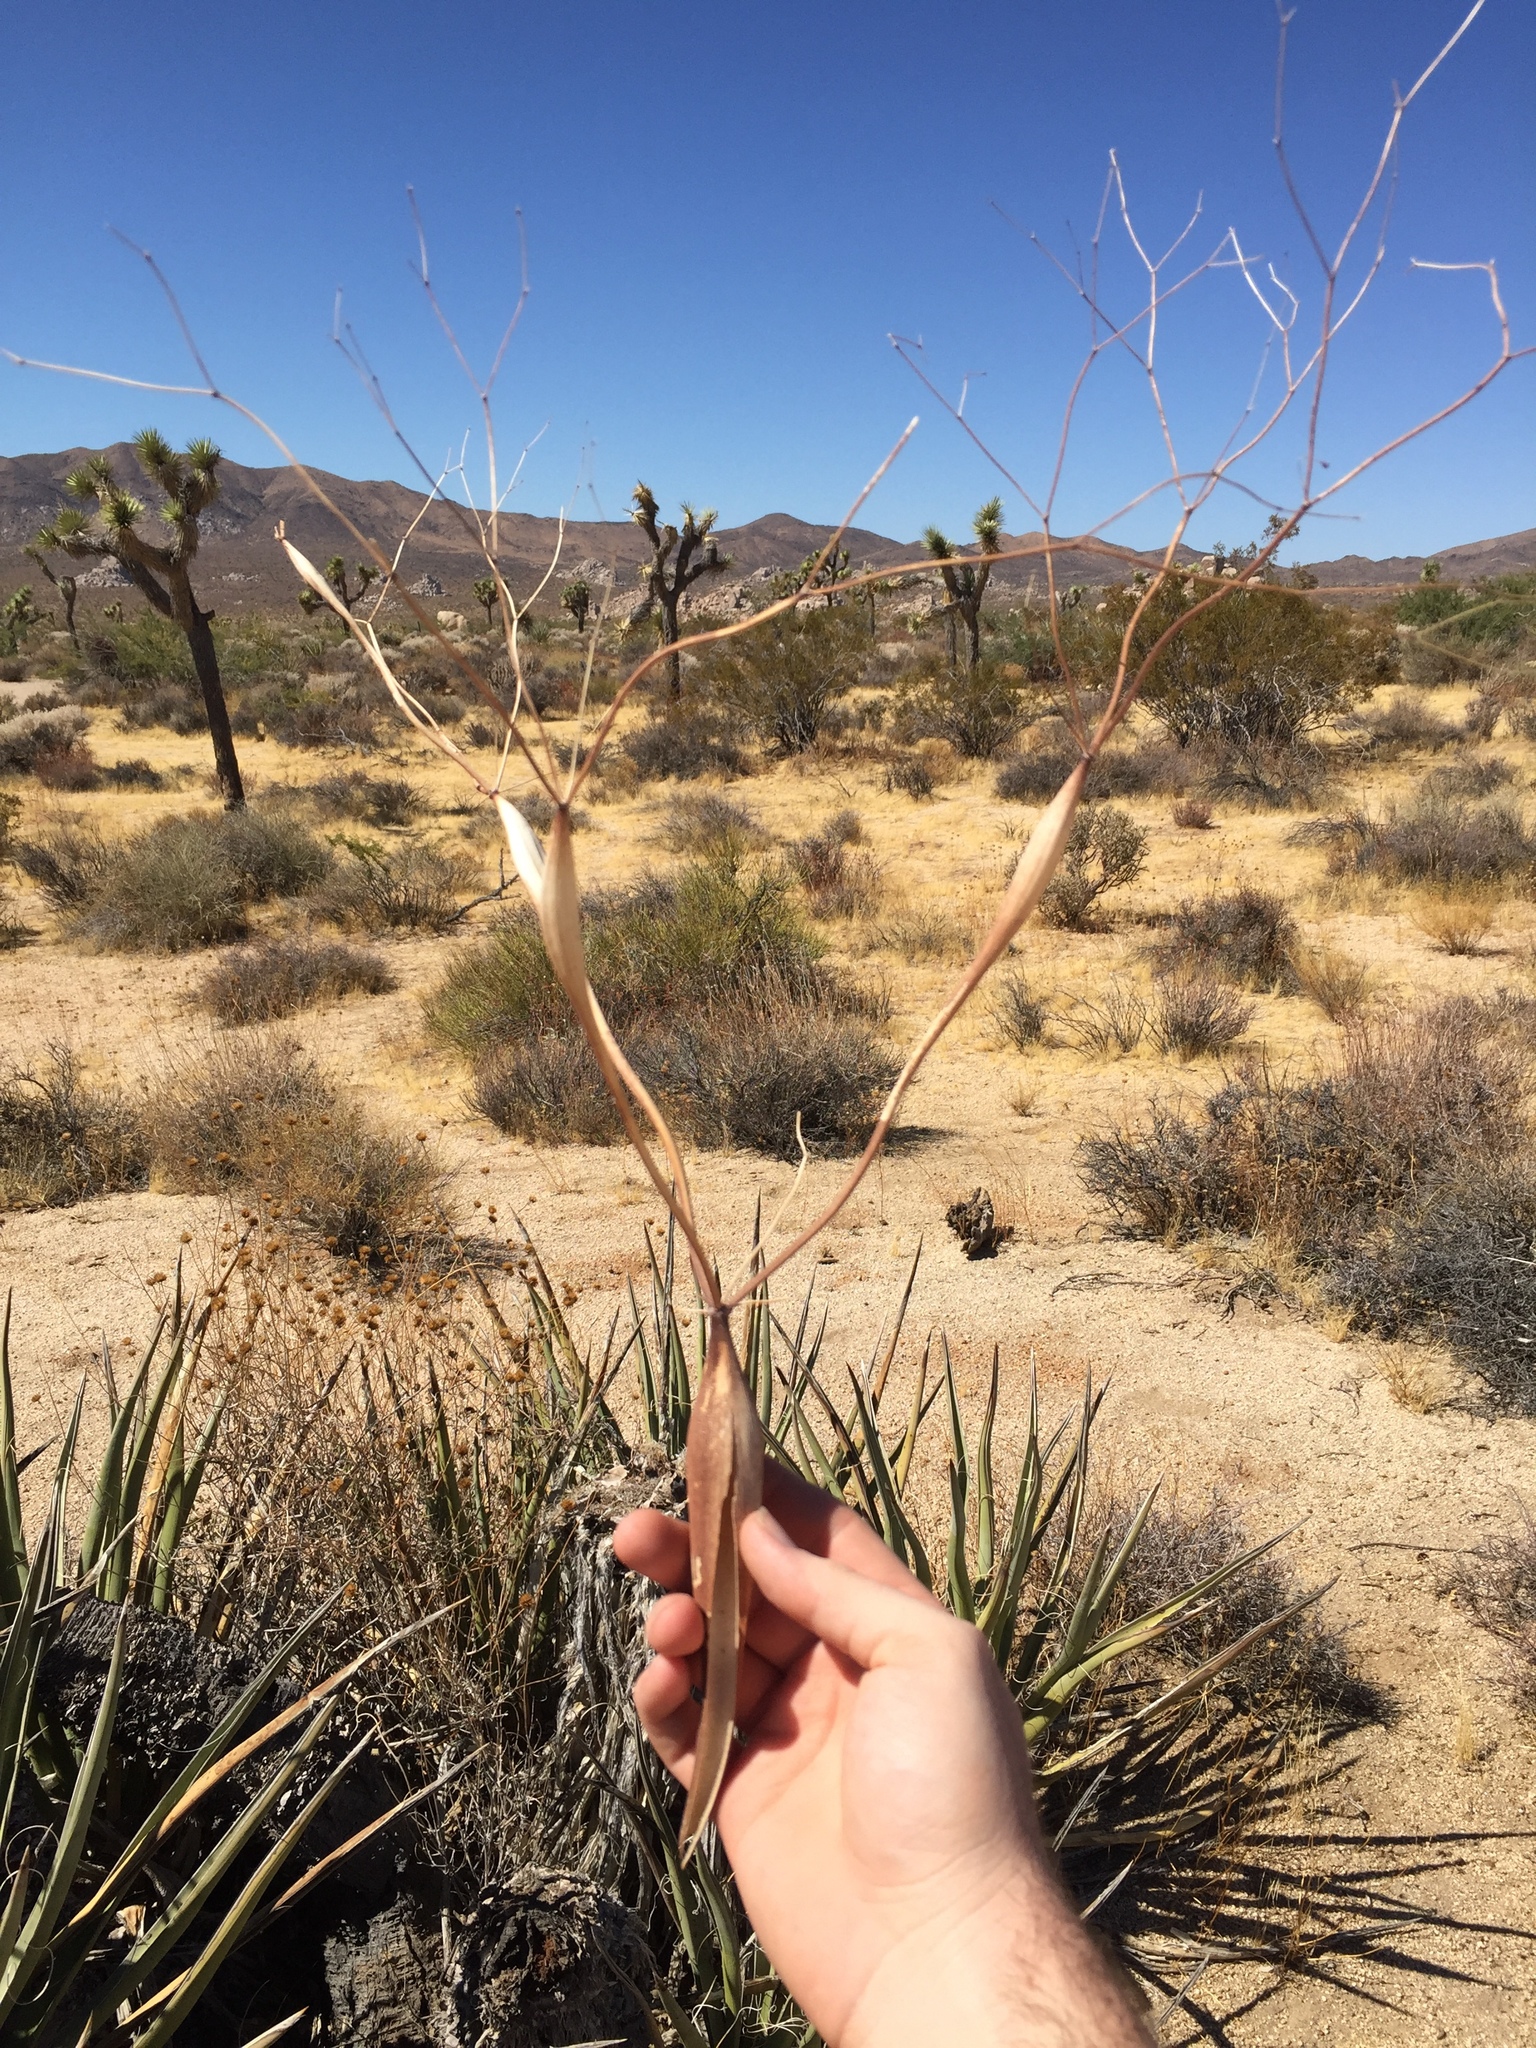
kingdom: Plantae
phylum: Tracheophyta
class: Magnoliopsida
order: Caryophyllales
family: Polygonaceae
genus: Eriogonum
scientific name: Eriogonum inflatum
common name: Desert trumpet
